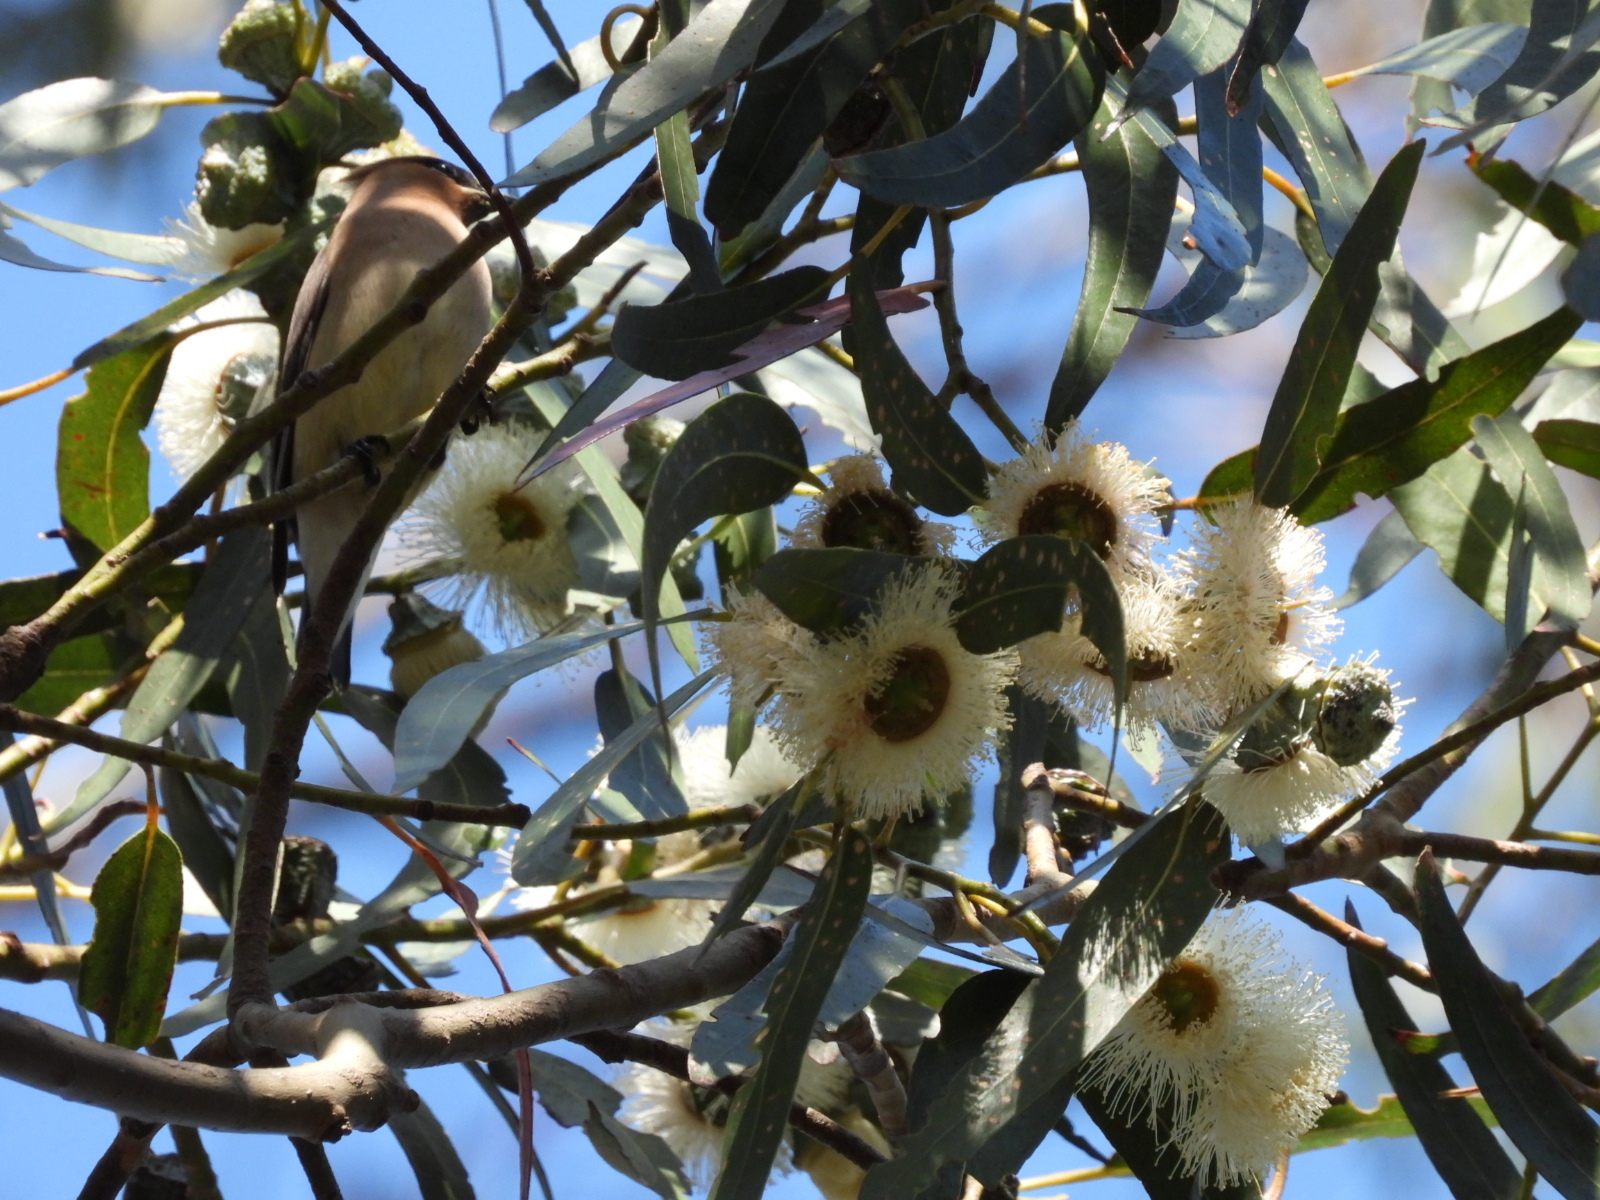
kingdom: Plantae
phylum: Tracheophyta
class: Magnoliopsida
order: Myrtales
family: Myrtaceae
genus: Eucalyptus
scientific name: Eucalyptus globulus
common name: Southern blue-gum
